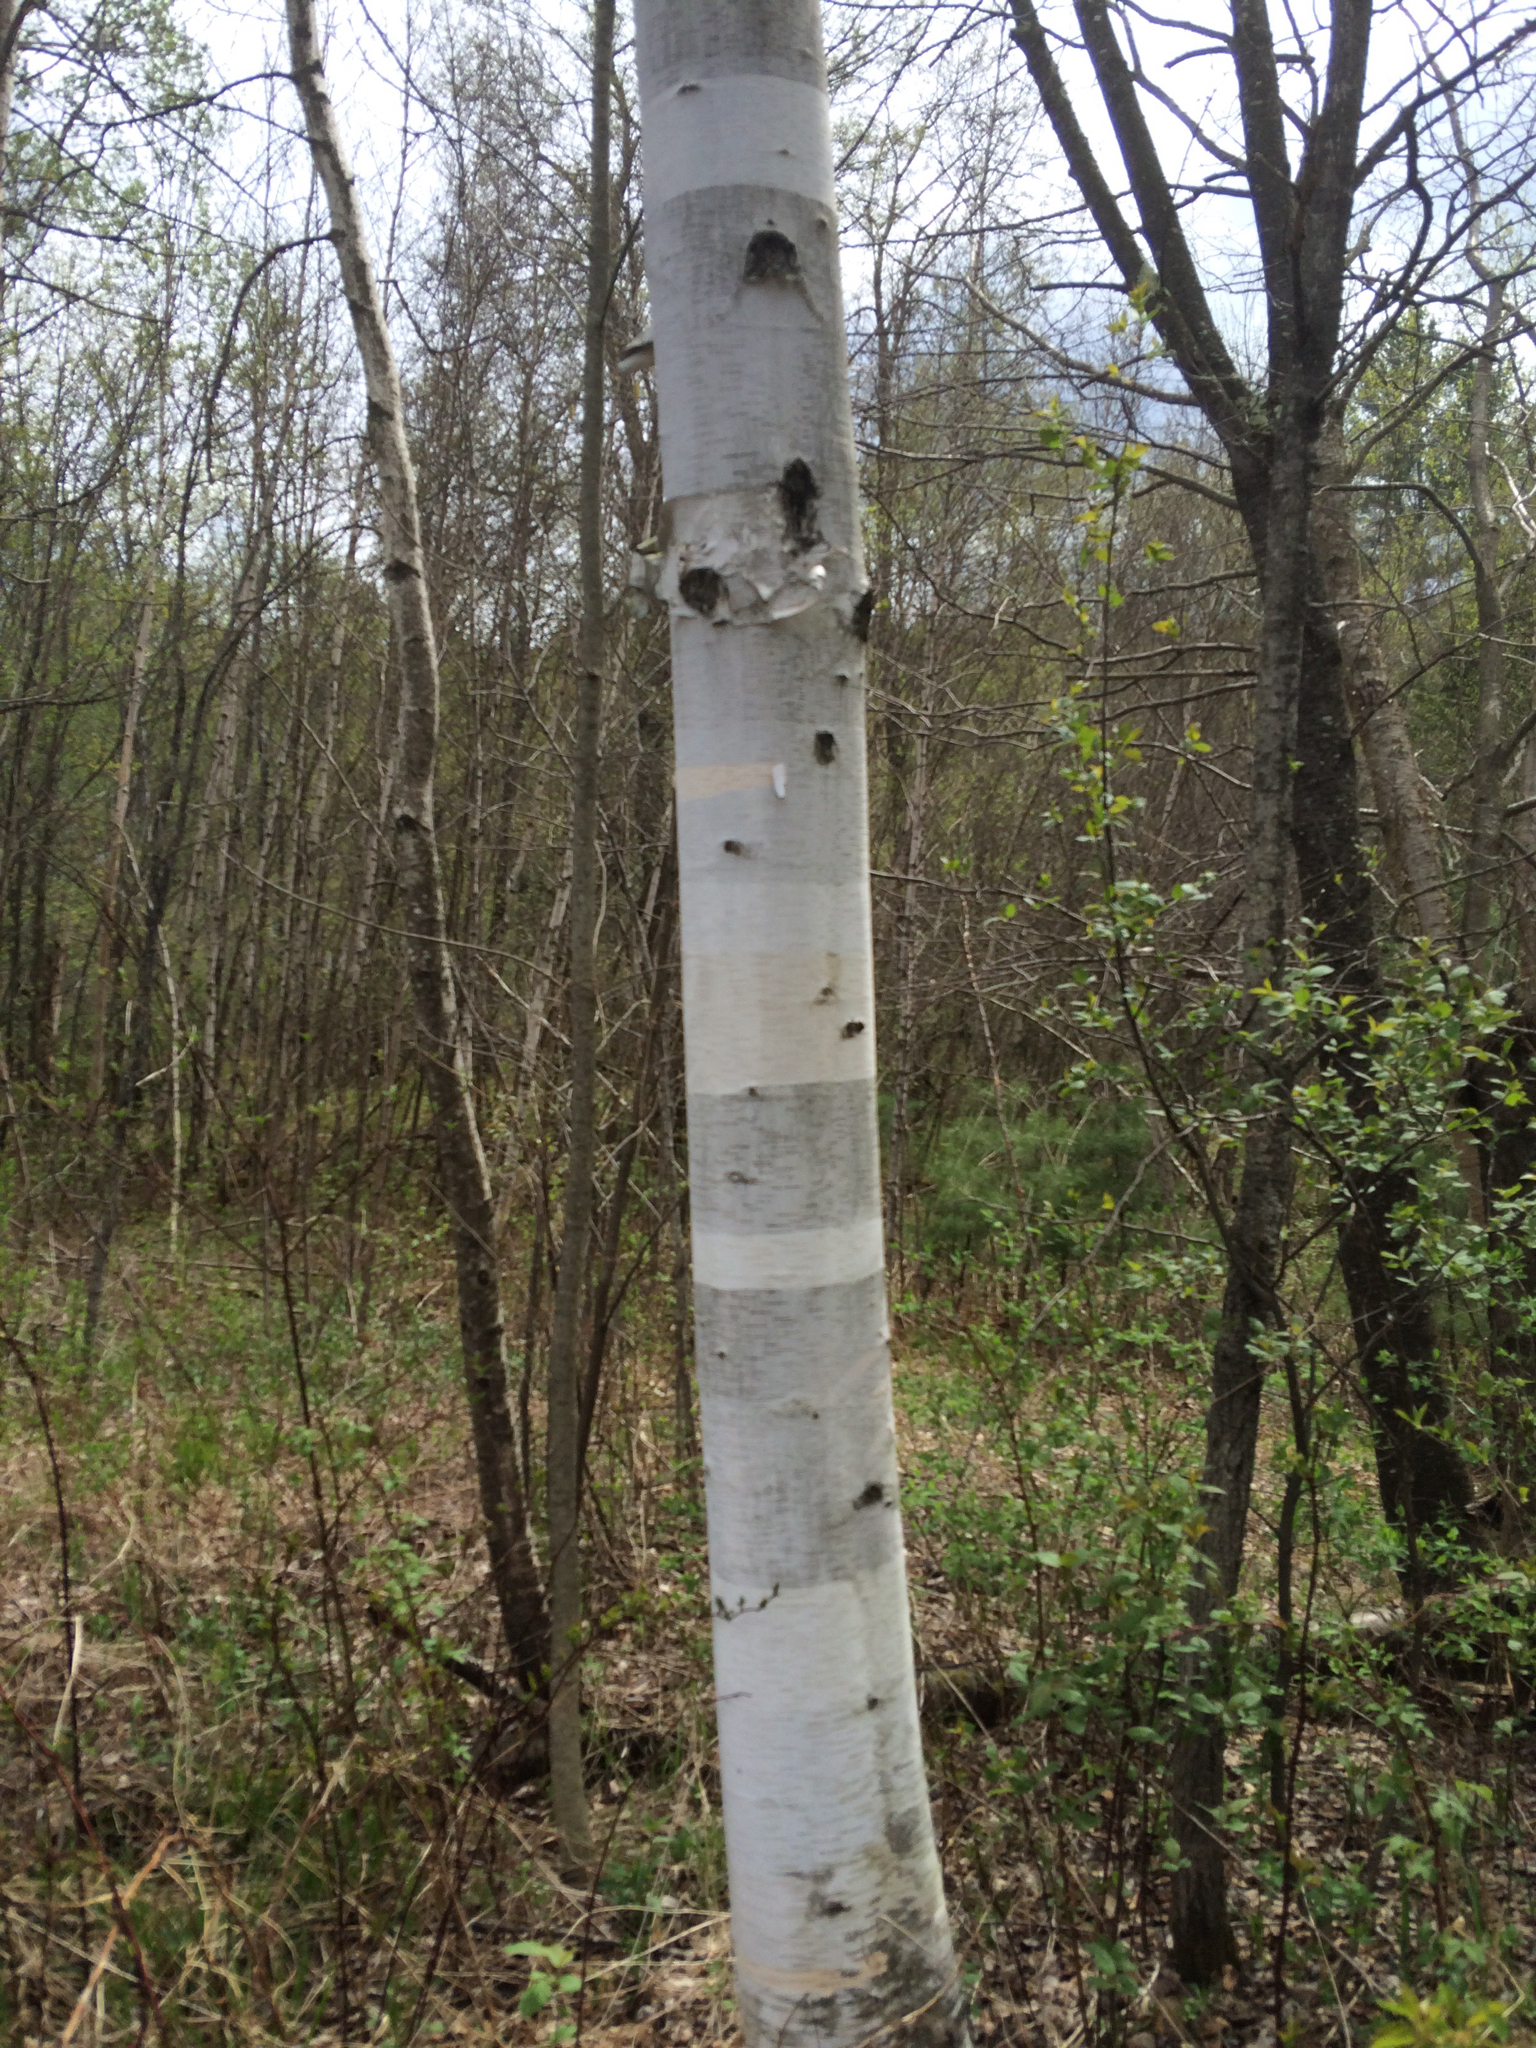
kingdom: Plantae
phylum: Tracheophyta
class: Magnoliopsida
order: Fagales
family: Betulaceae
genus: Betula
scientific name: Betula papyrifera
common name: Paper birch
